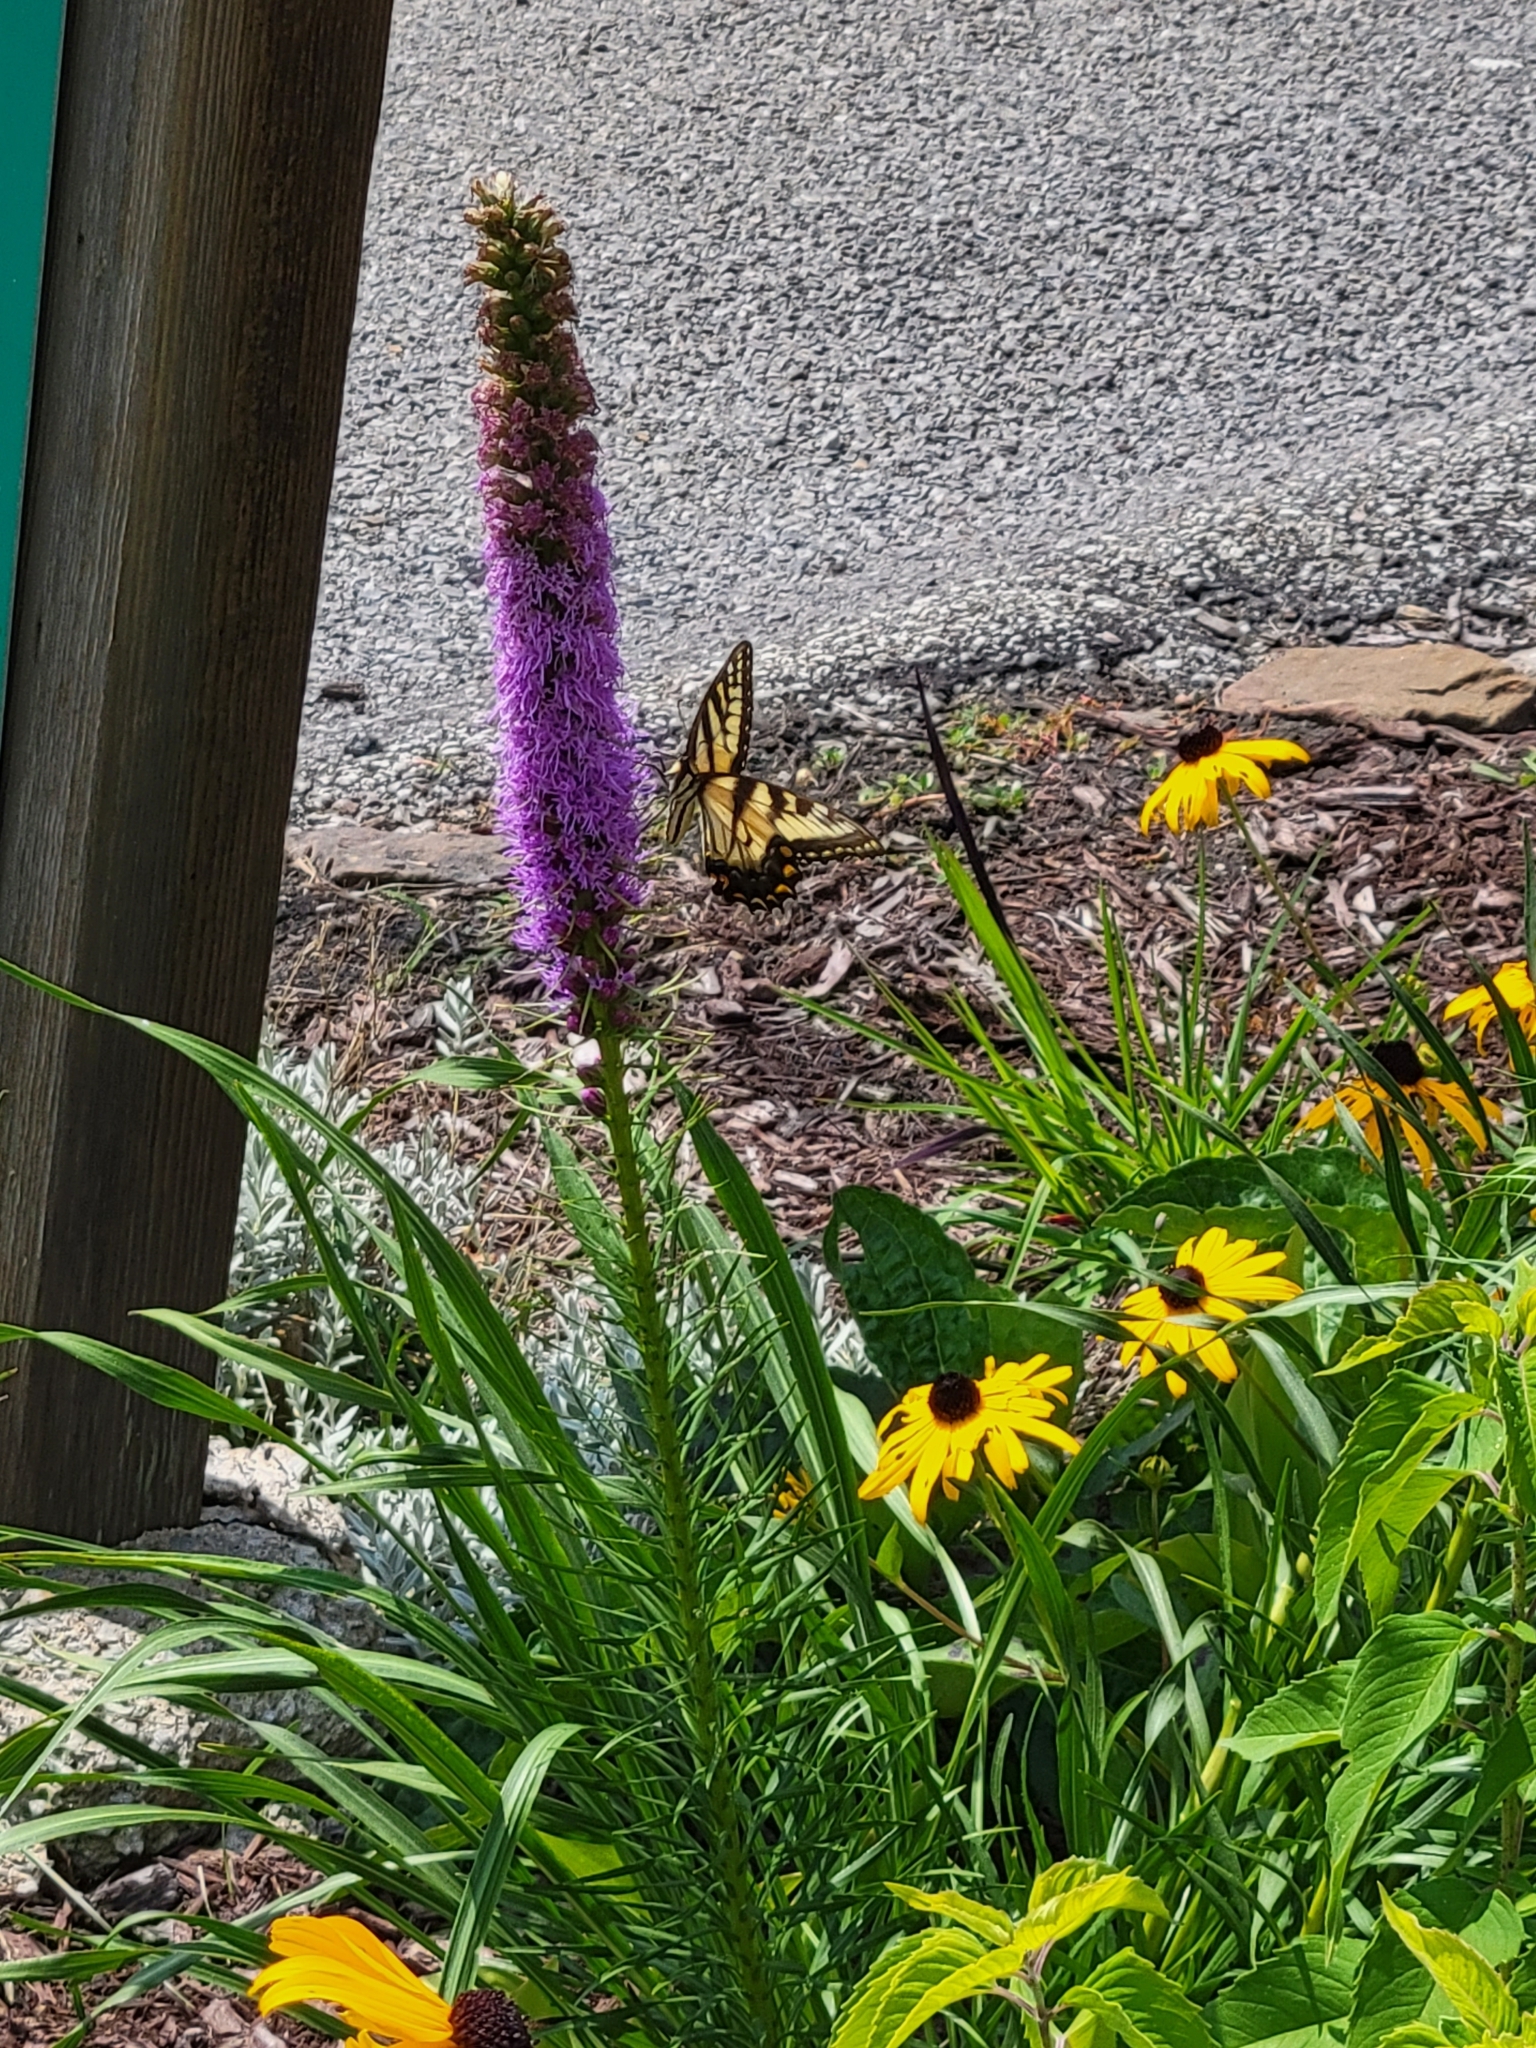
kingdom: Animalia
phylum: Arthropoda
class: Insecta
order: Lepidoptera
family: Papilionidae
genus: Papilio
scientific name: Papilio glaucus
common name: Tiger swallowtail
